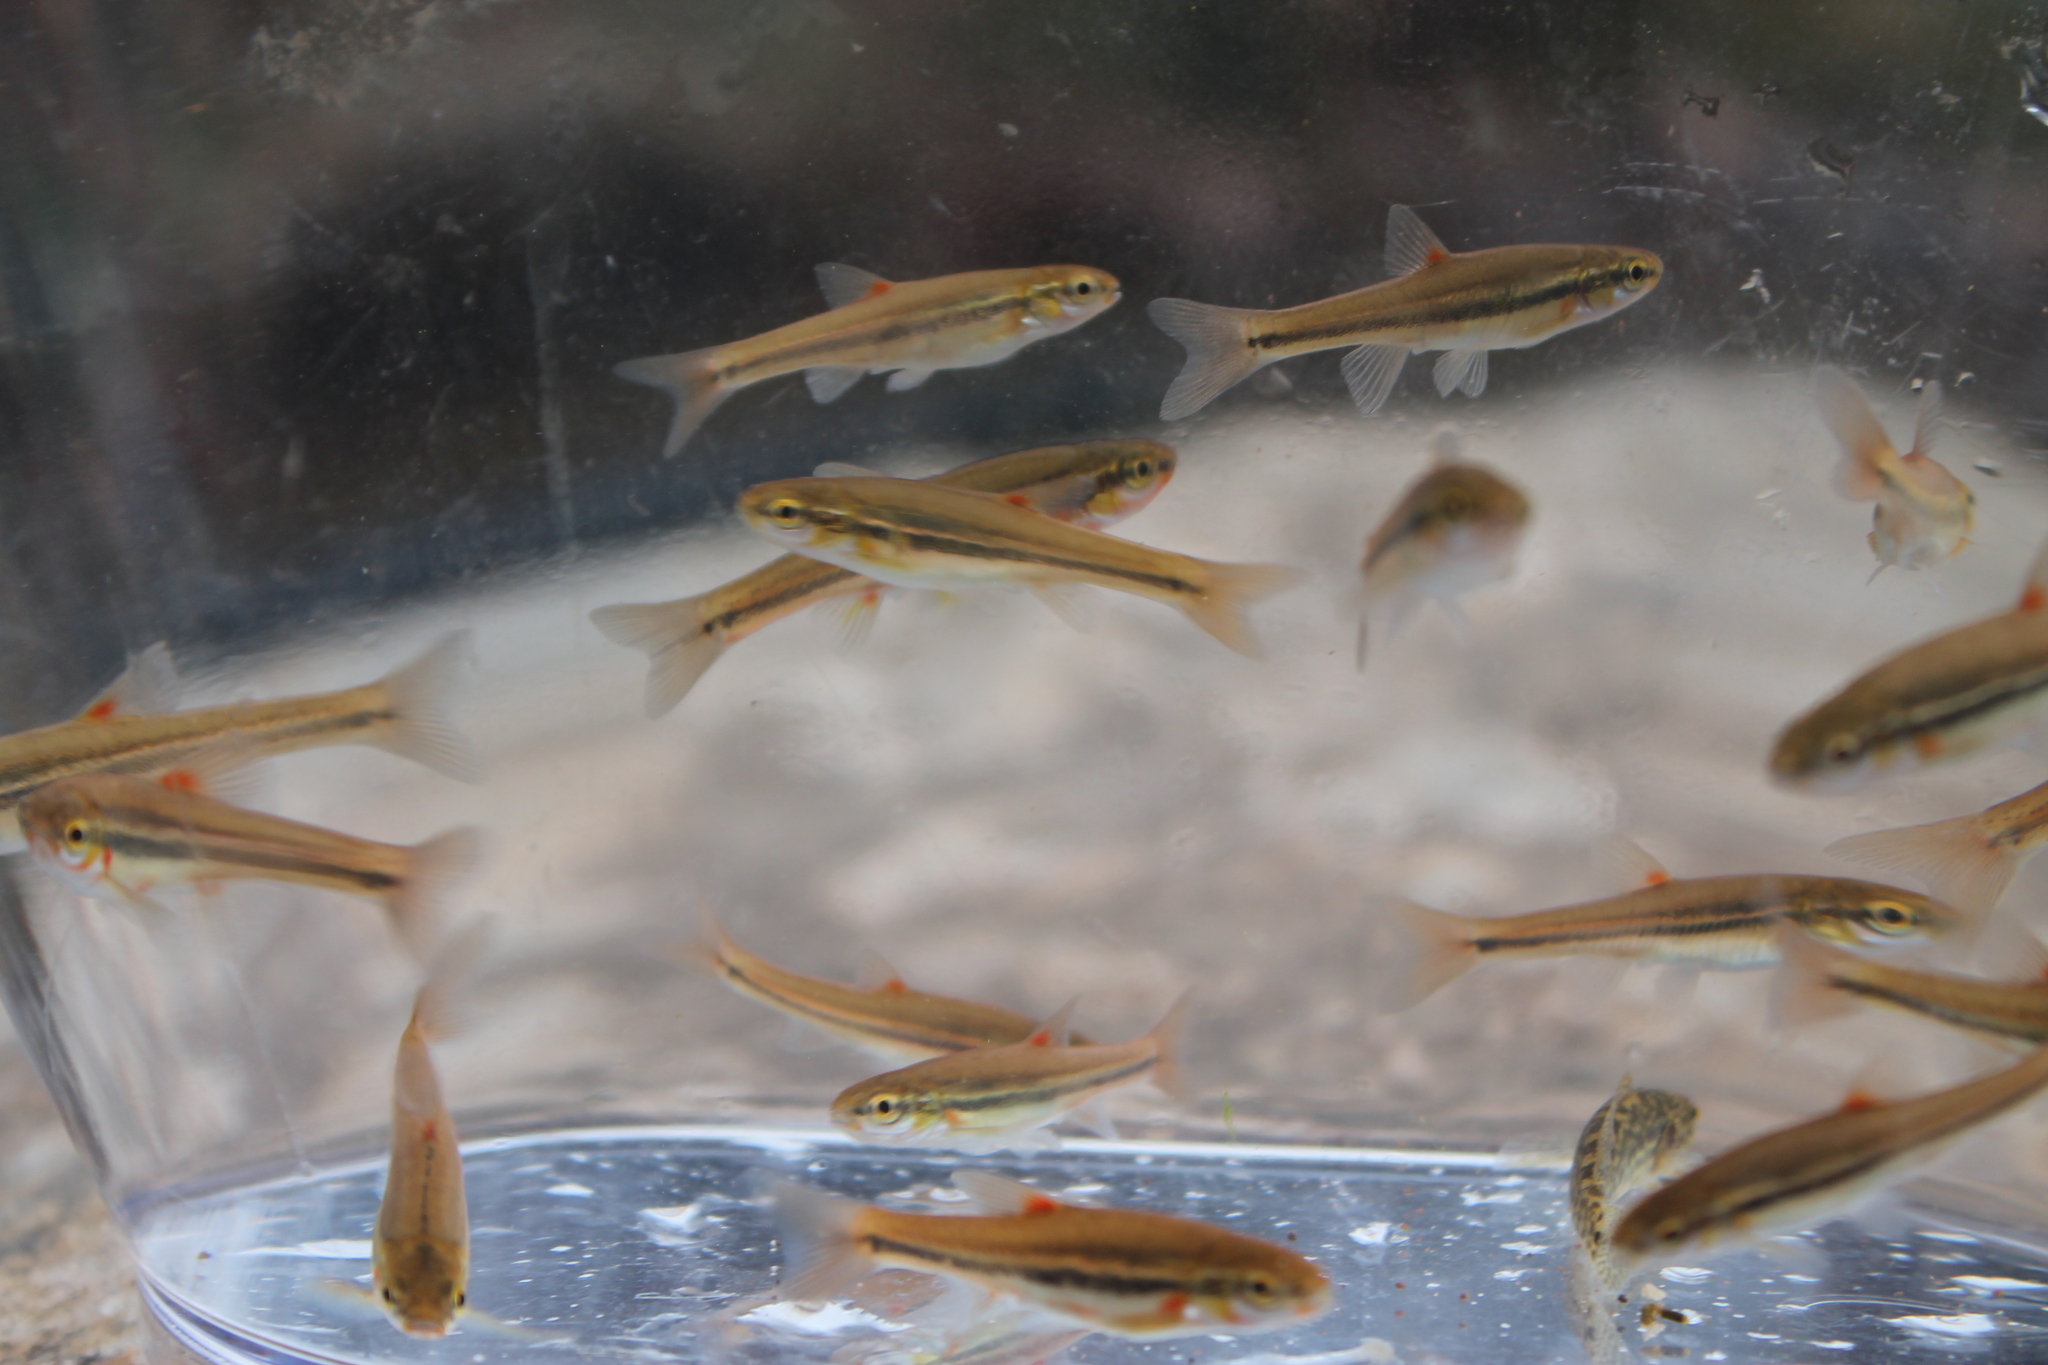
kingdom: Animalia
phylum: Chordata
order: Cypriniformes
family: Cyprinidae
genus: Chrosomus
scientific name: Chrosomus erythrogaster
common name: Southern redbelly dace
